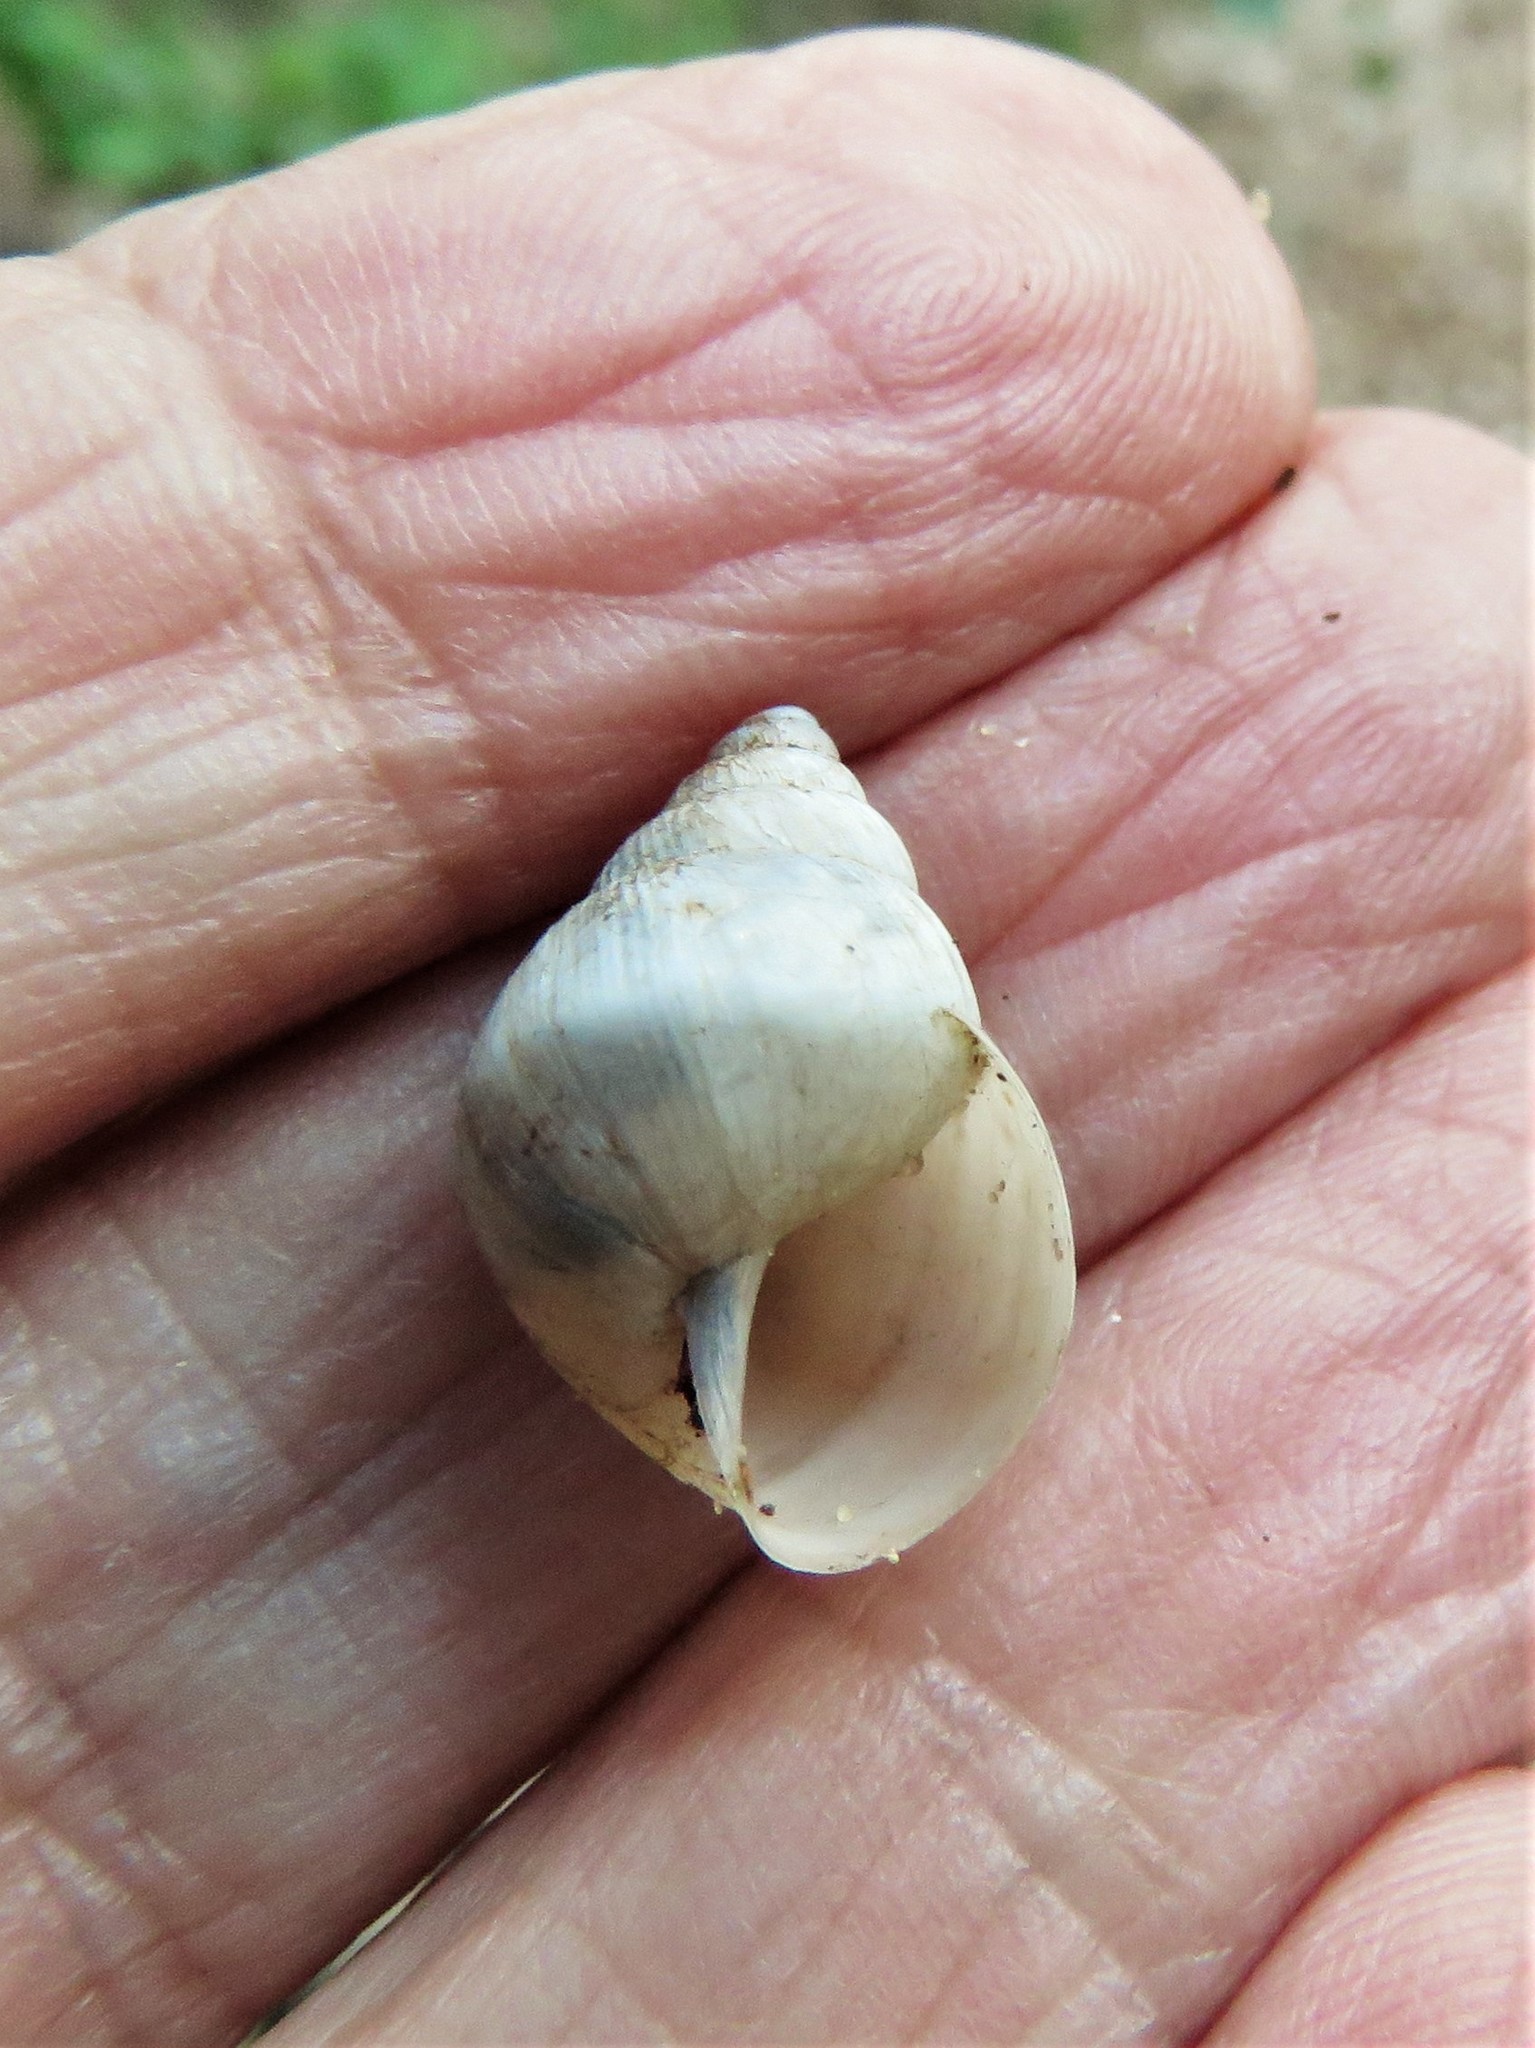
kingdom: Animalia
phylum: Mollusca
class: Gastropoda
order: Stylommatophora
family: Bulimulidae
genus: Rabdotus
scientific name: Rabdotus mooreanus
